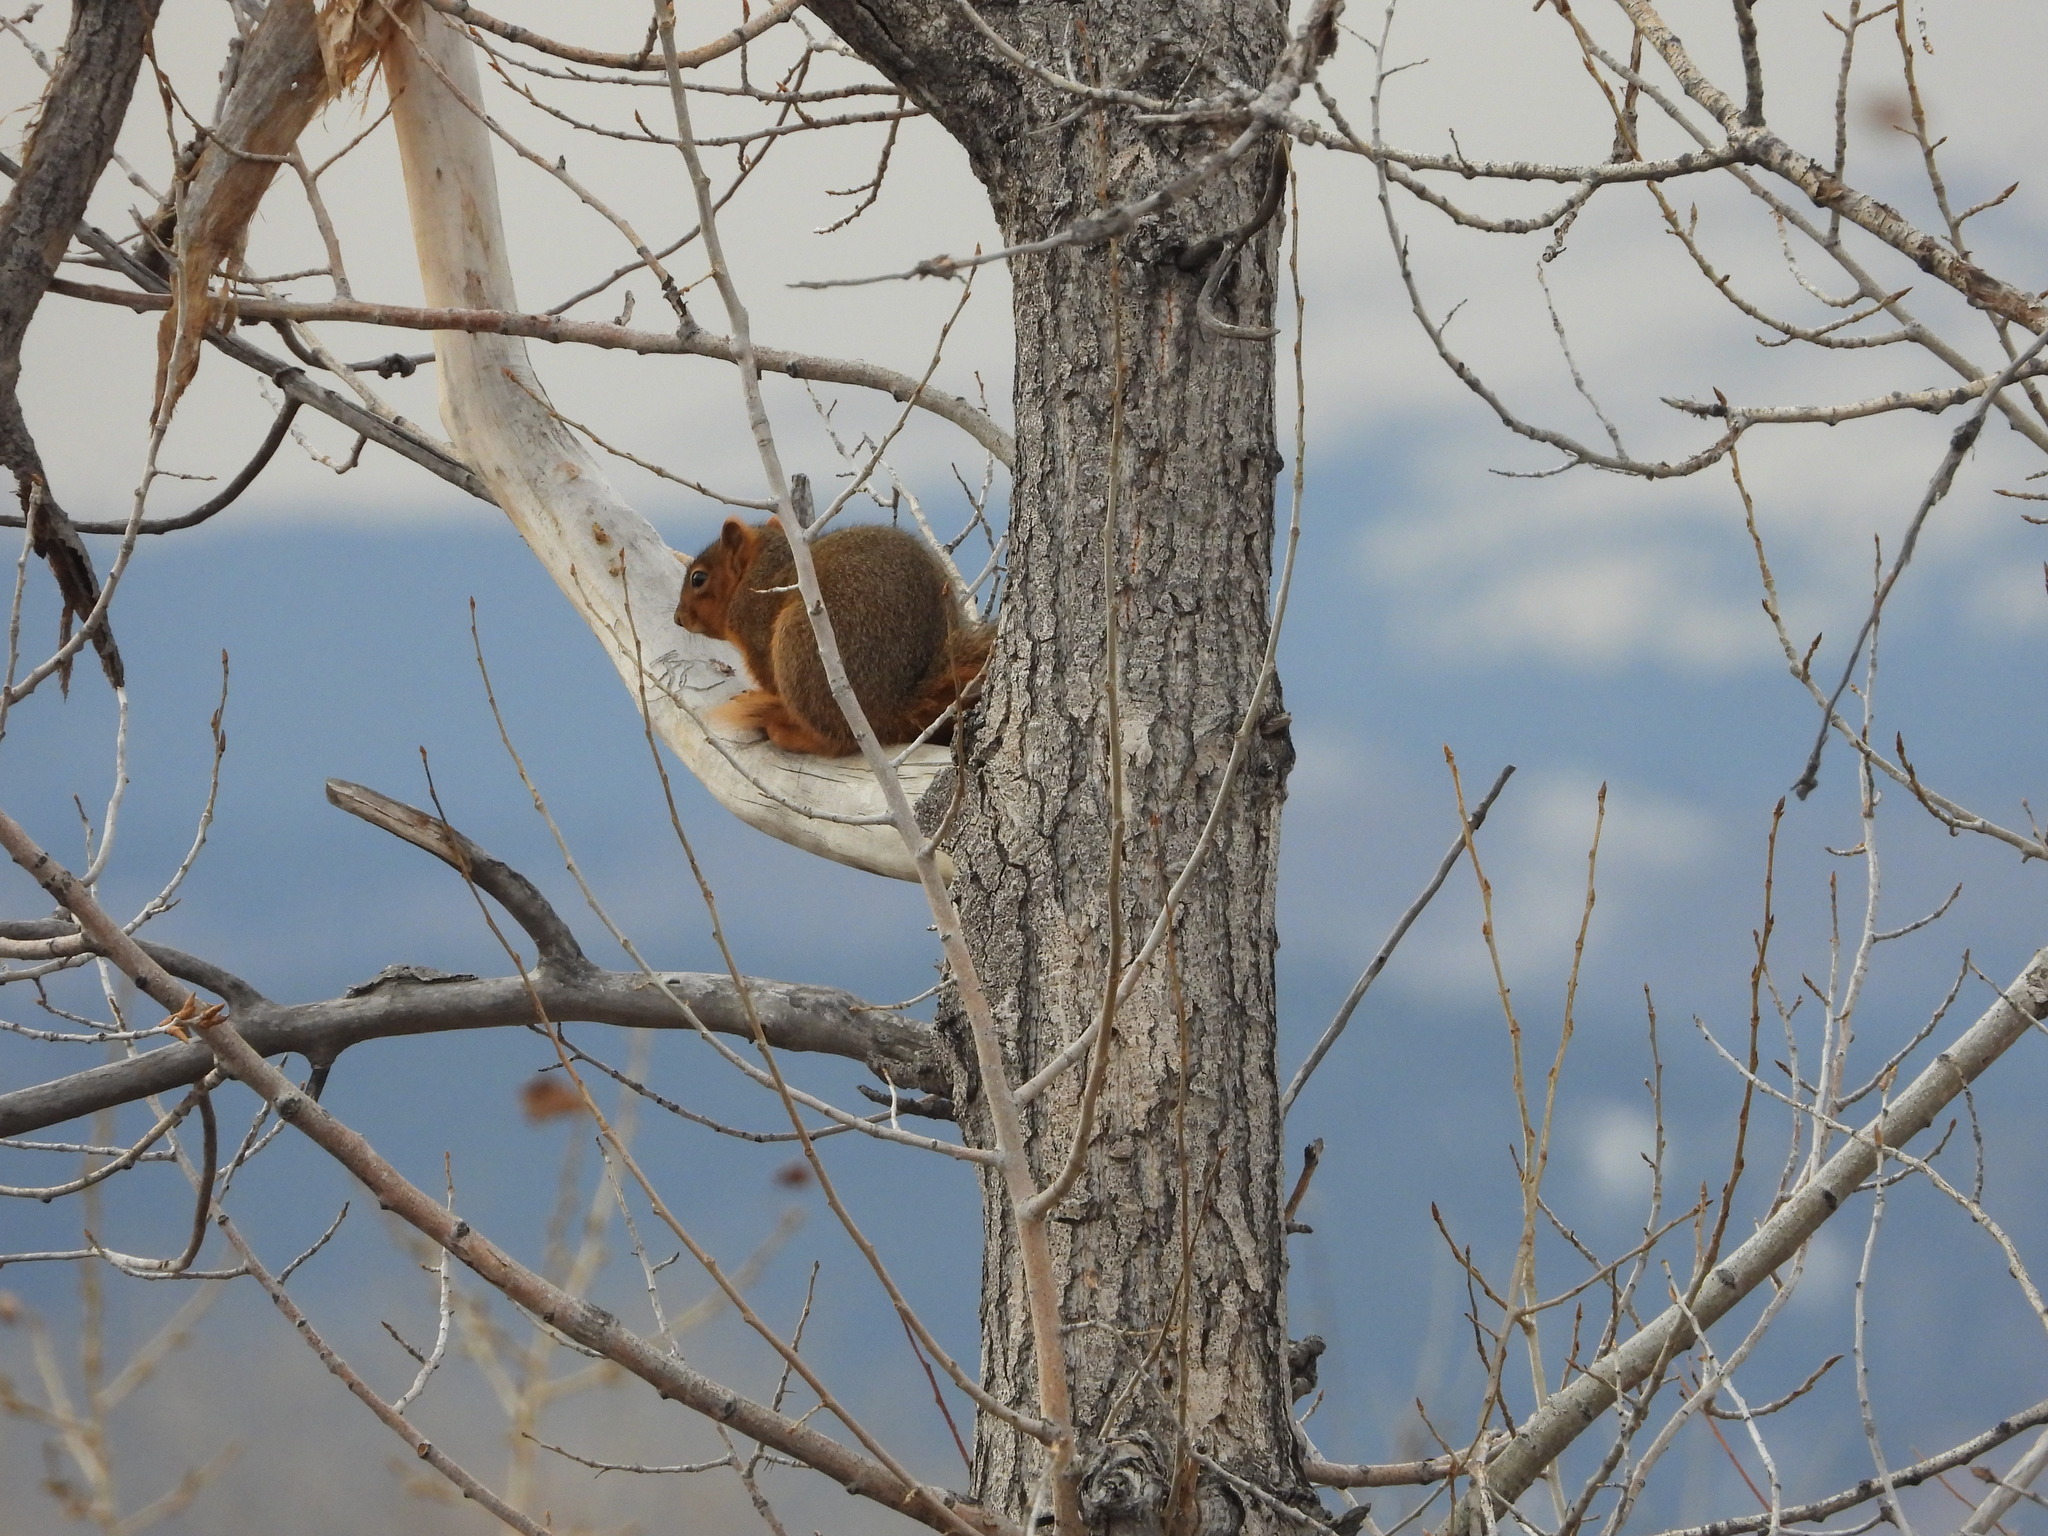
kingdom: Animalia
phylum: Chordata
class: Mammalia
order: Rodentia
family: Sciuridae
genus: Sciurus
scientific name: Sciurus niger
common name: Fox squirrel
